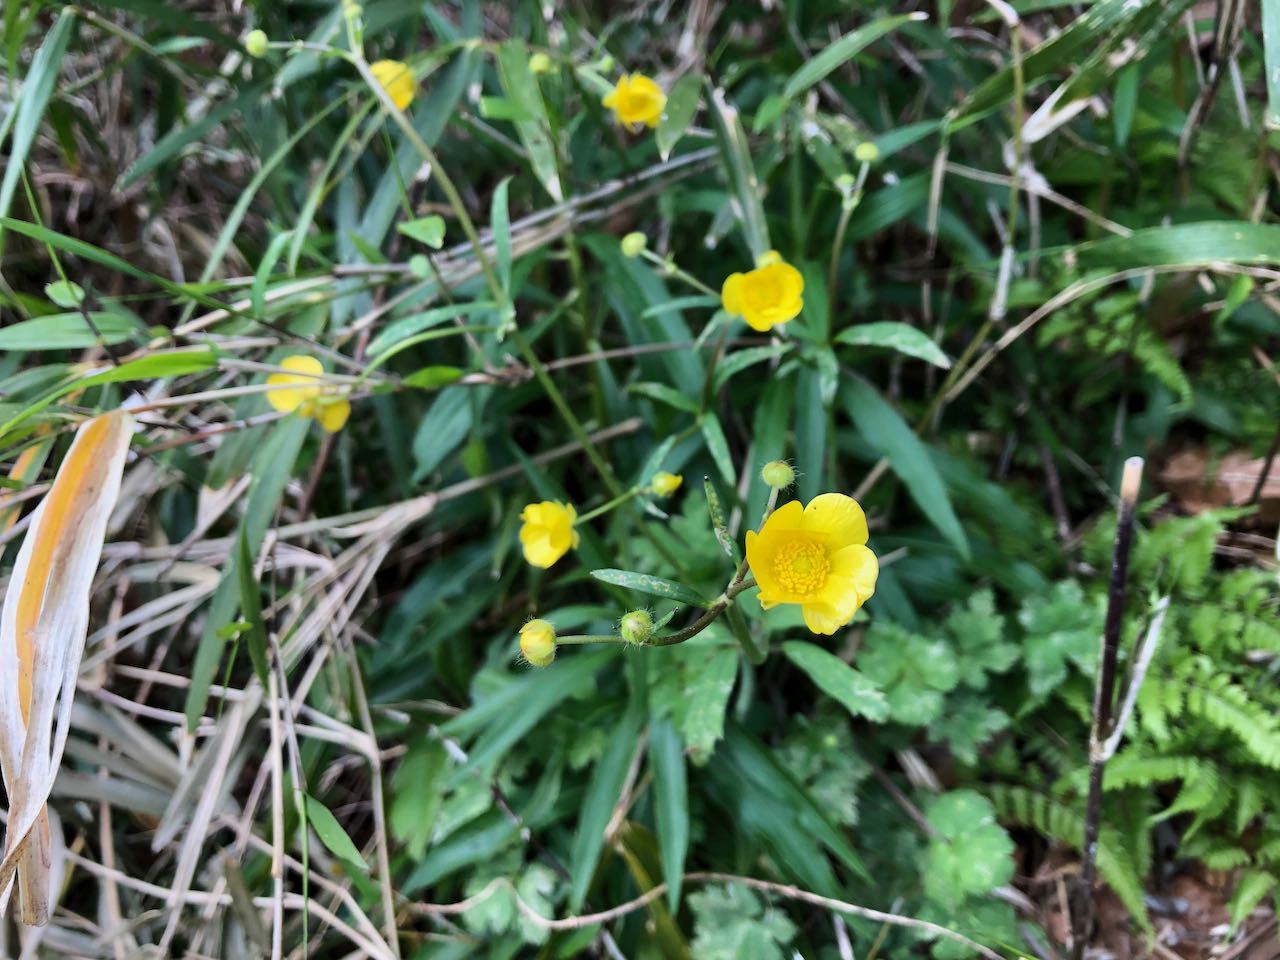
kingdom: Plantae
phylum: Tracheophyta
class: Magnoliopsida
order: Ranunculales
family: Ranunculaceae
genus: Ranunculus
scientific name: Ranunculus japonicus
